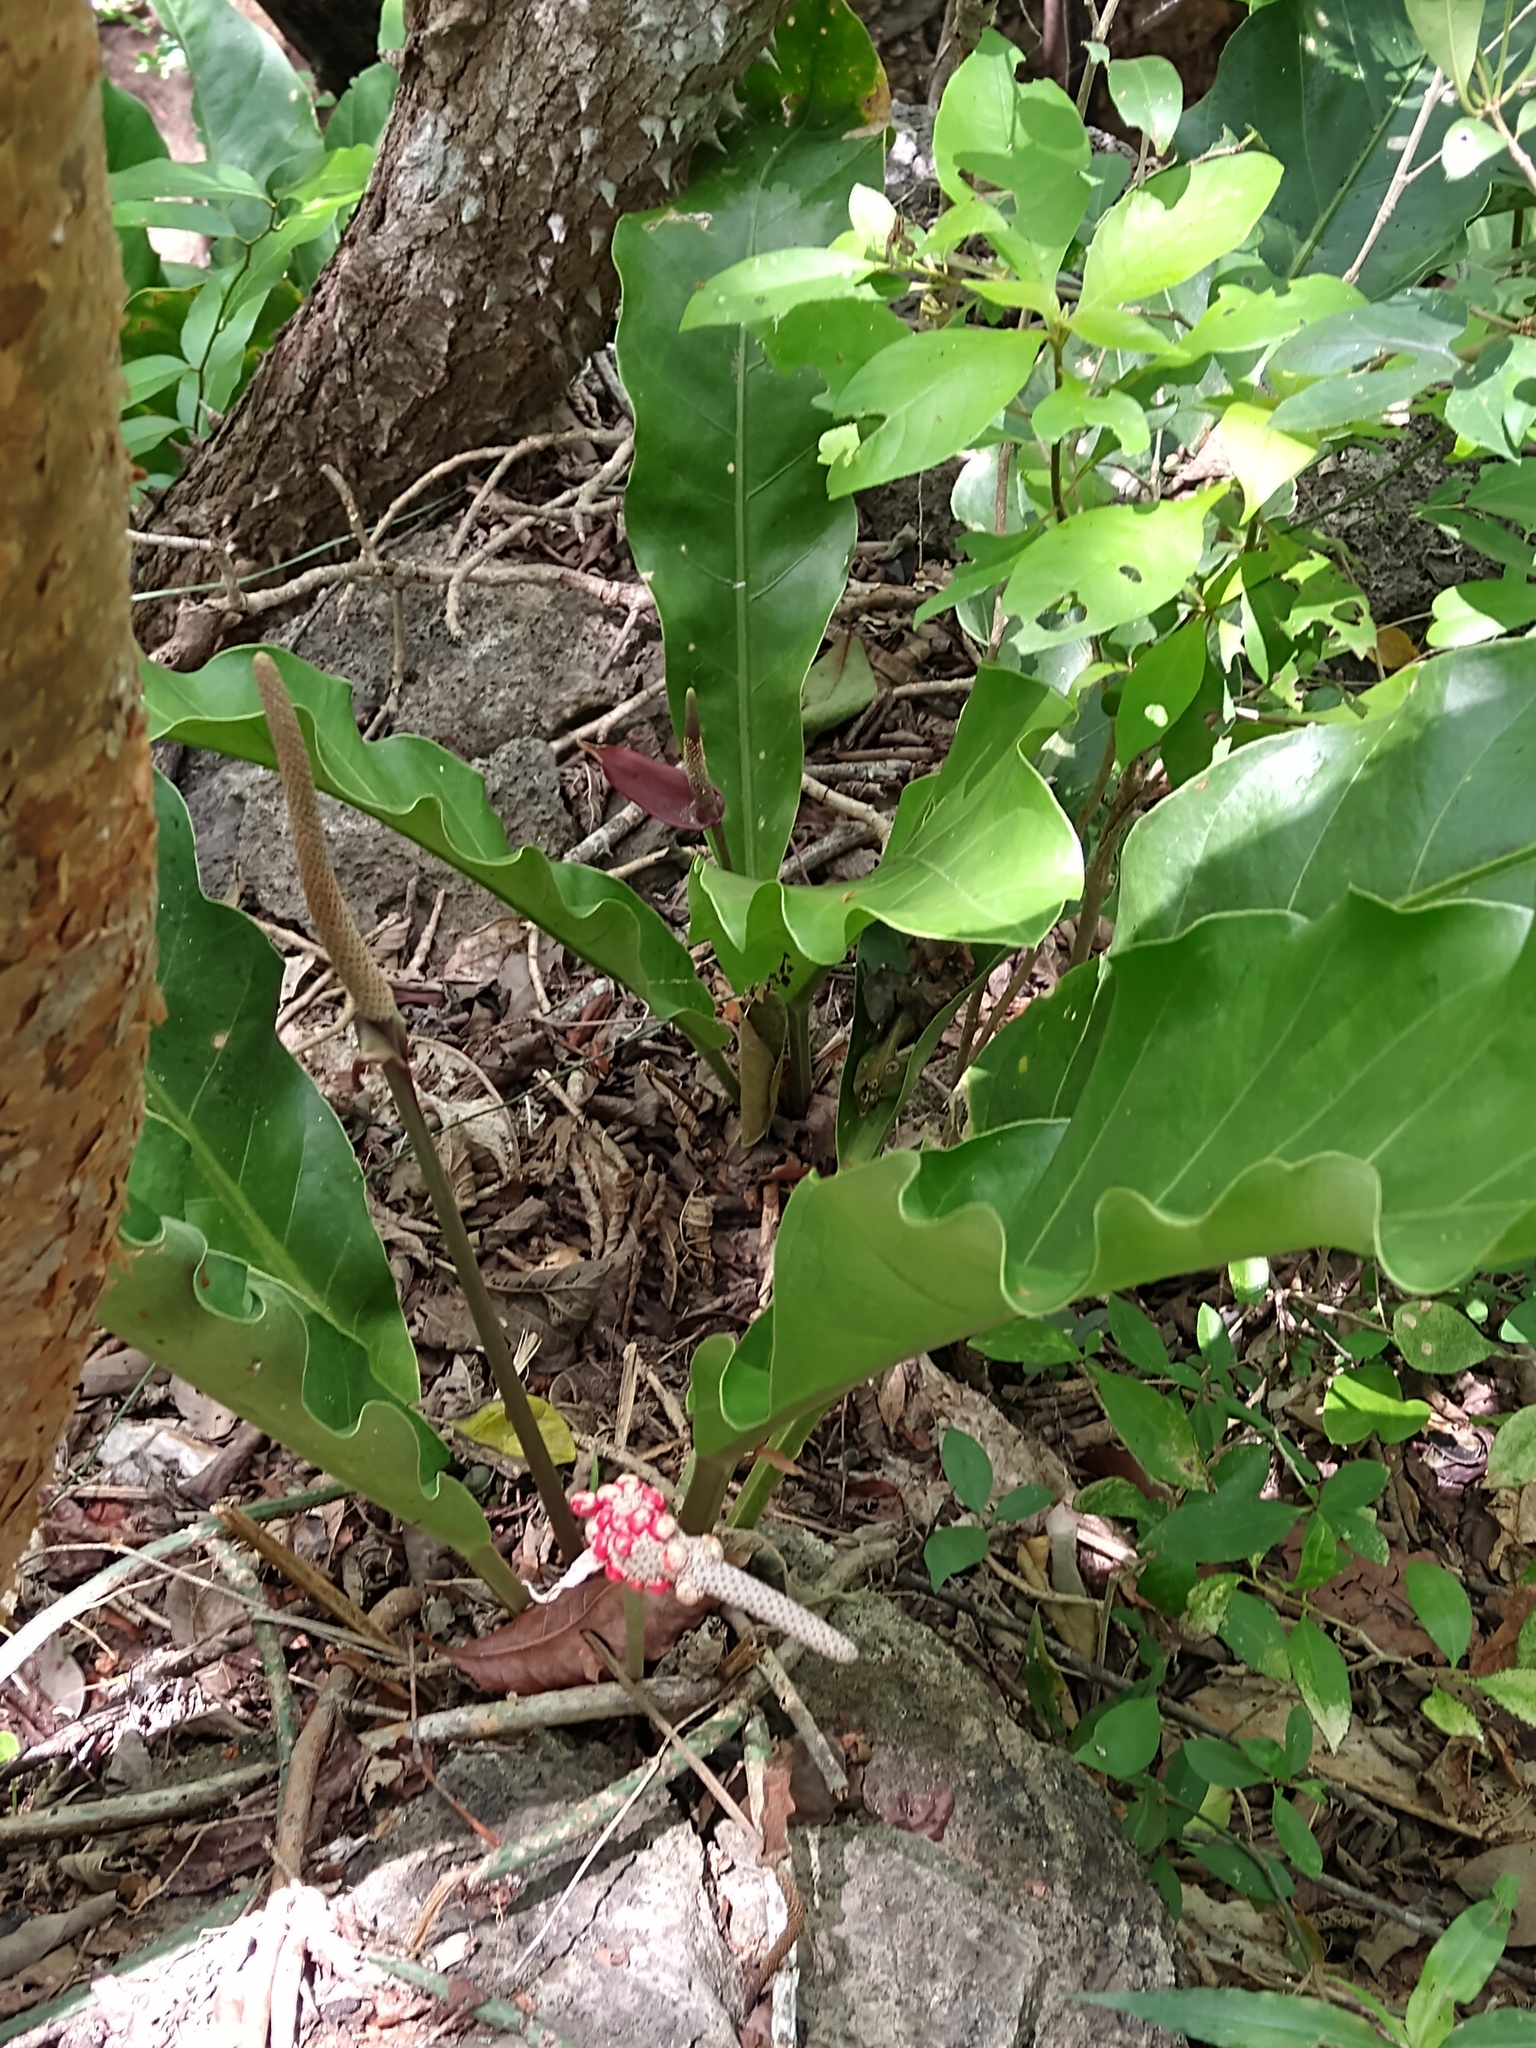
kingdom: Plantae
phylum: Tracheophyta
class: Liliopsida
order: Alismatales
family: Araceae
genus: Anthurium
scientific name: Anthurium schlechtendalii
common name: Laceleaf
